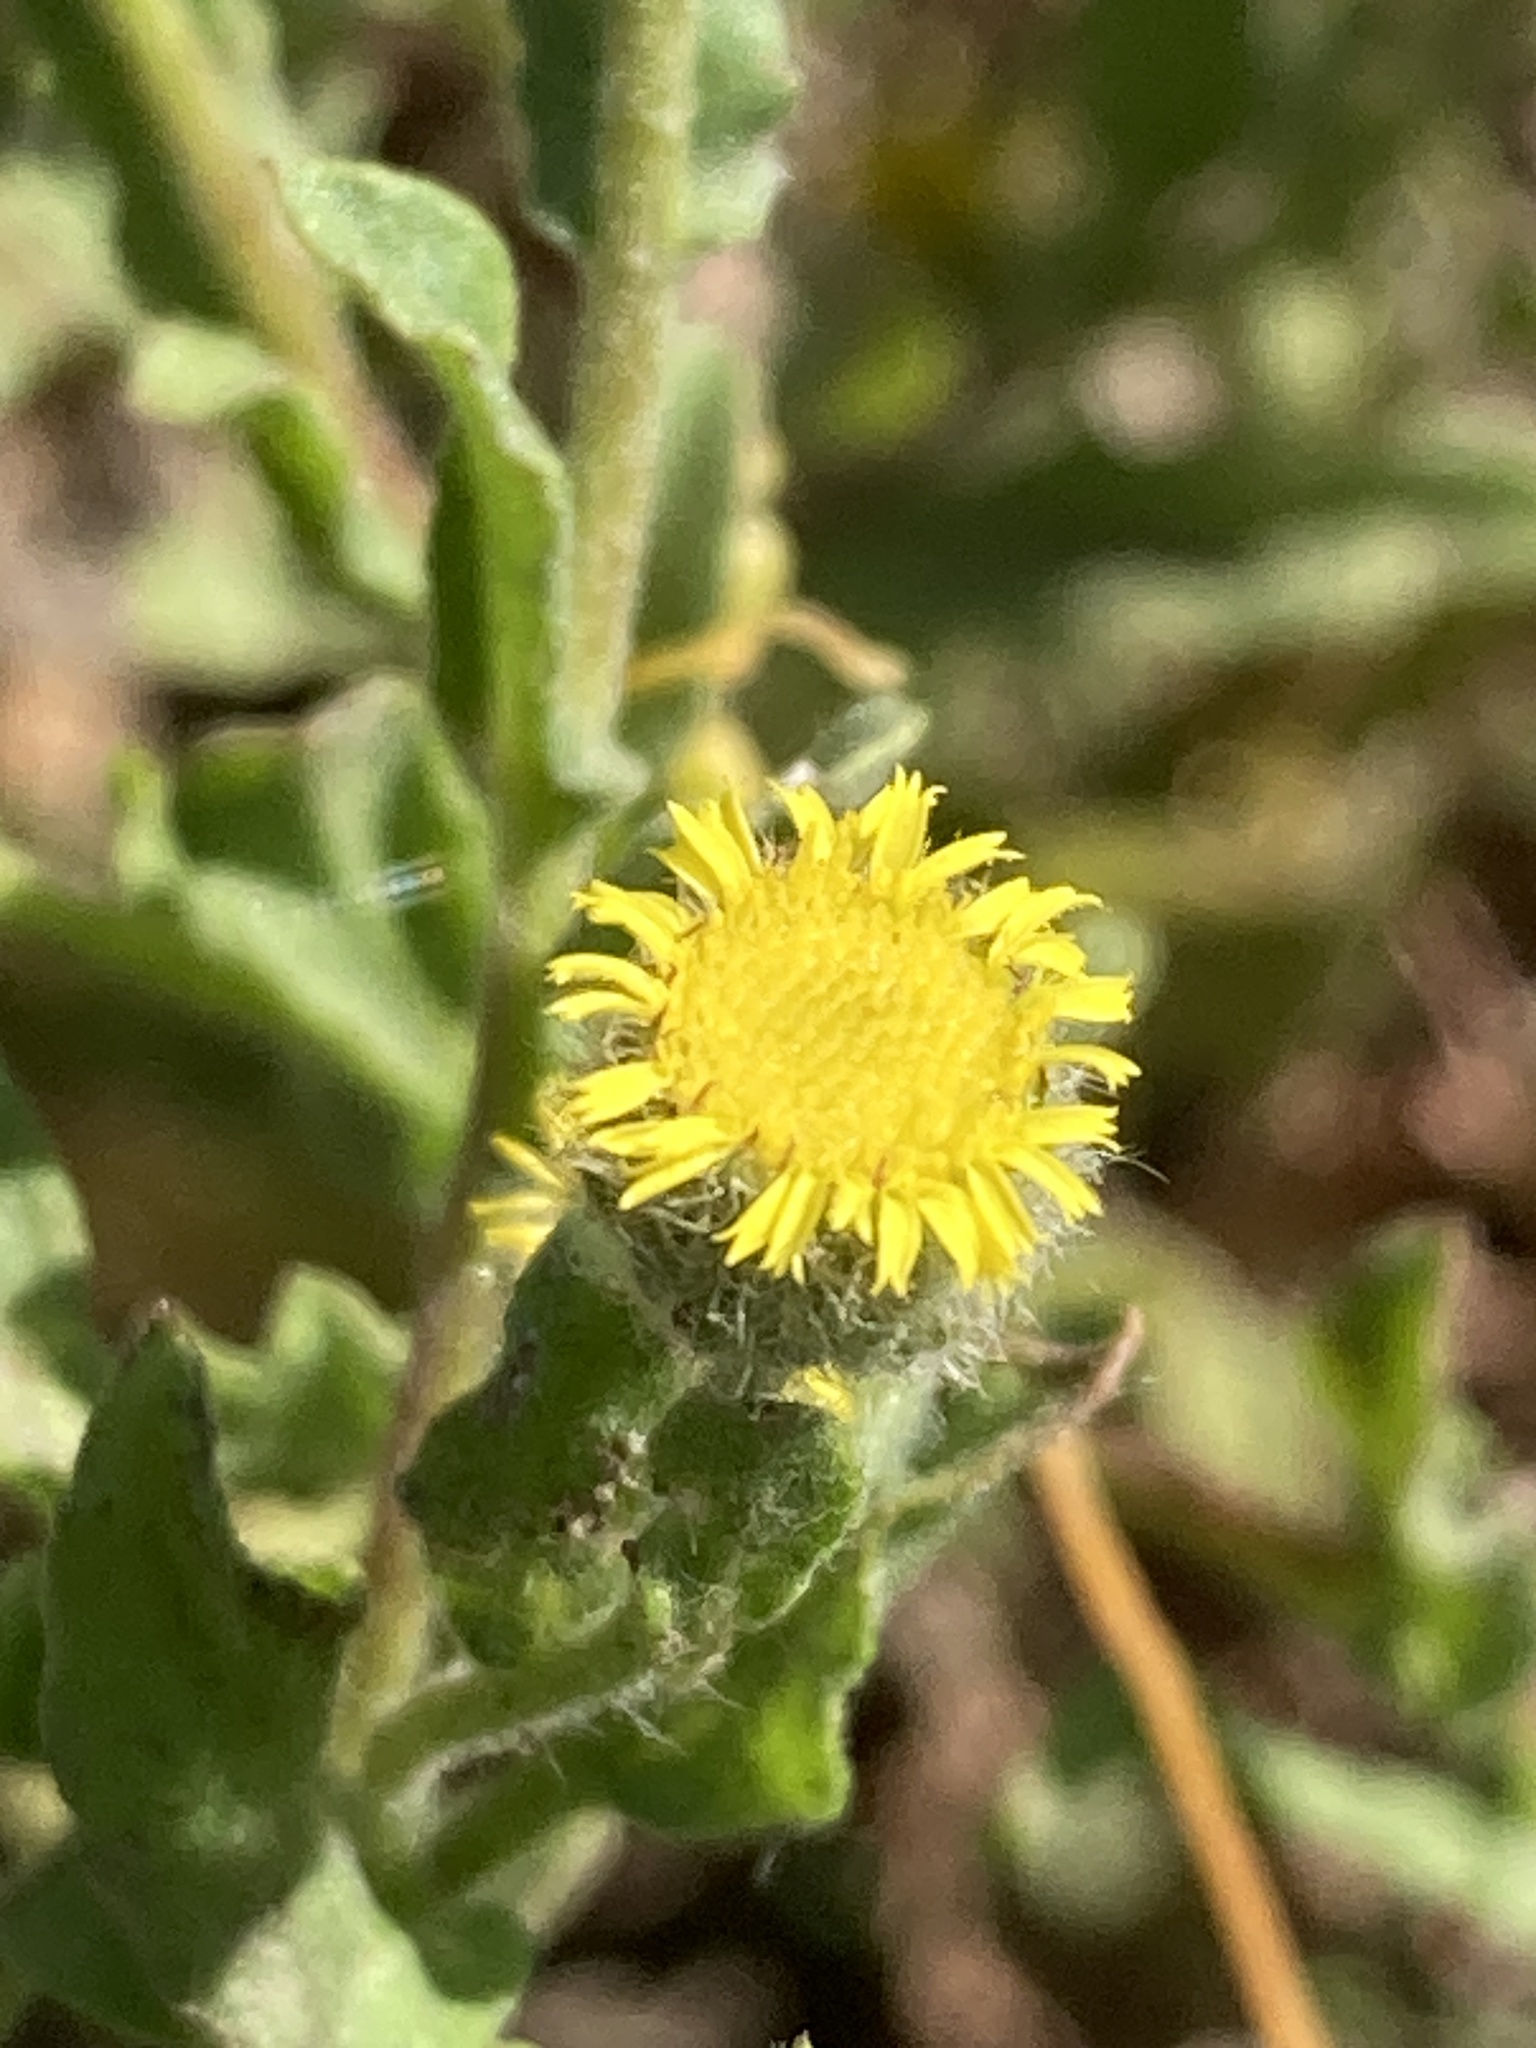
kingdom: Plantae
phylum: Tracheophyta
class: Magnoliopsida
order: Asterales
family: Asteraceae
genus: Pulicaria
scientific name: Pulicaria vulgaris
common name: Small fleabane
